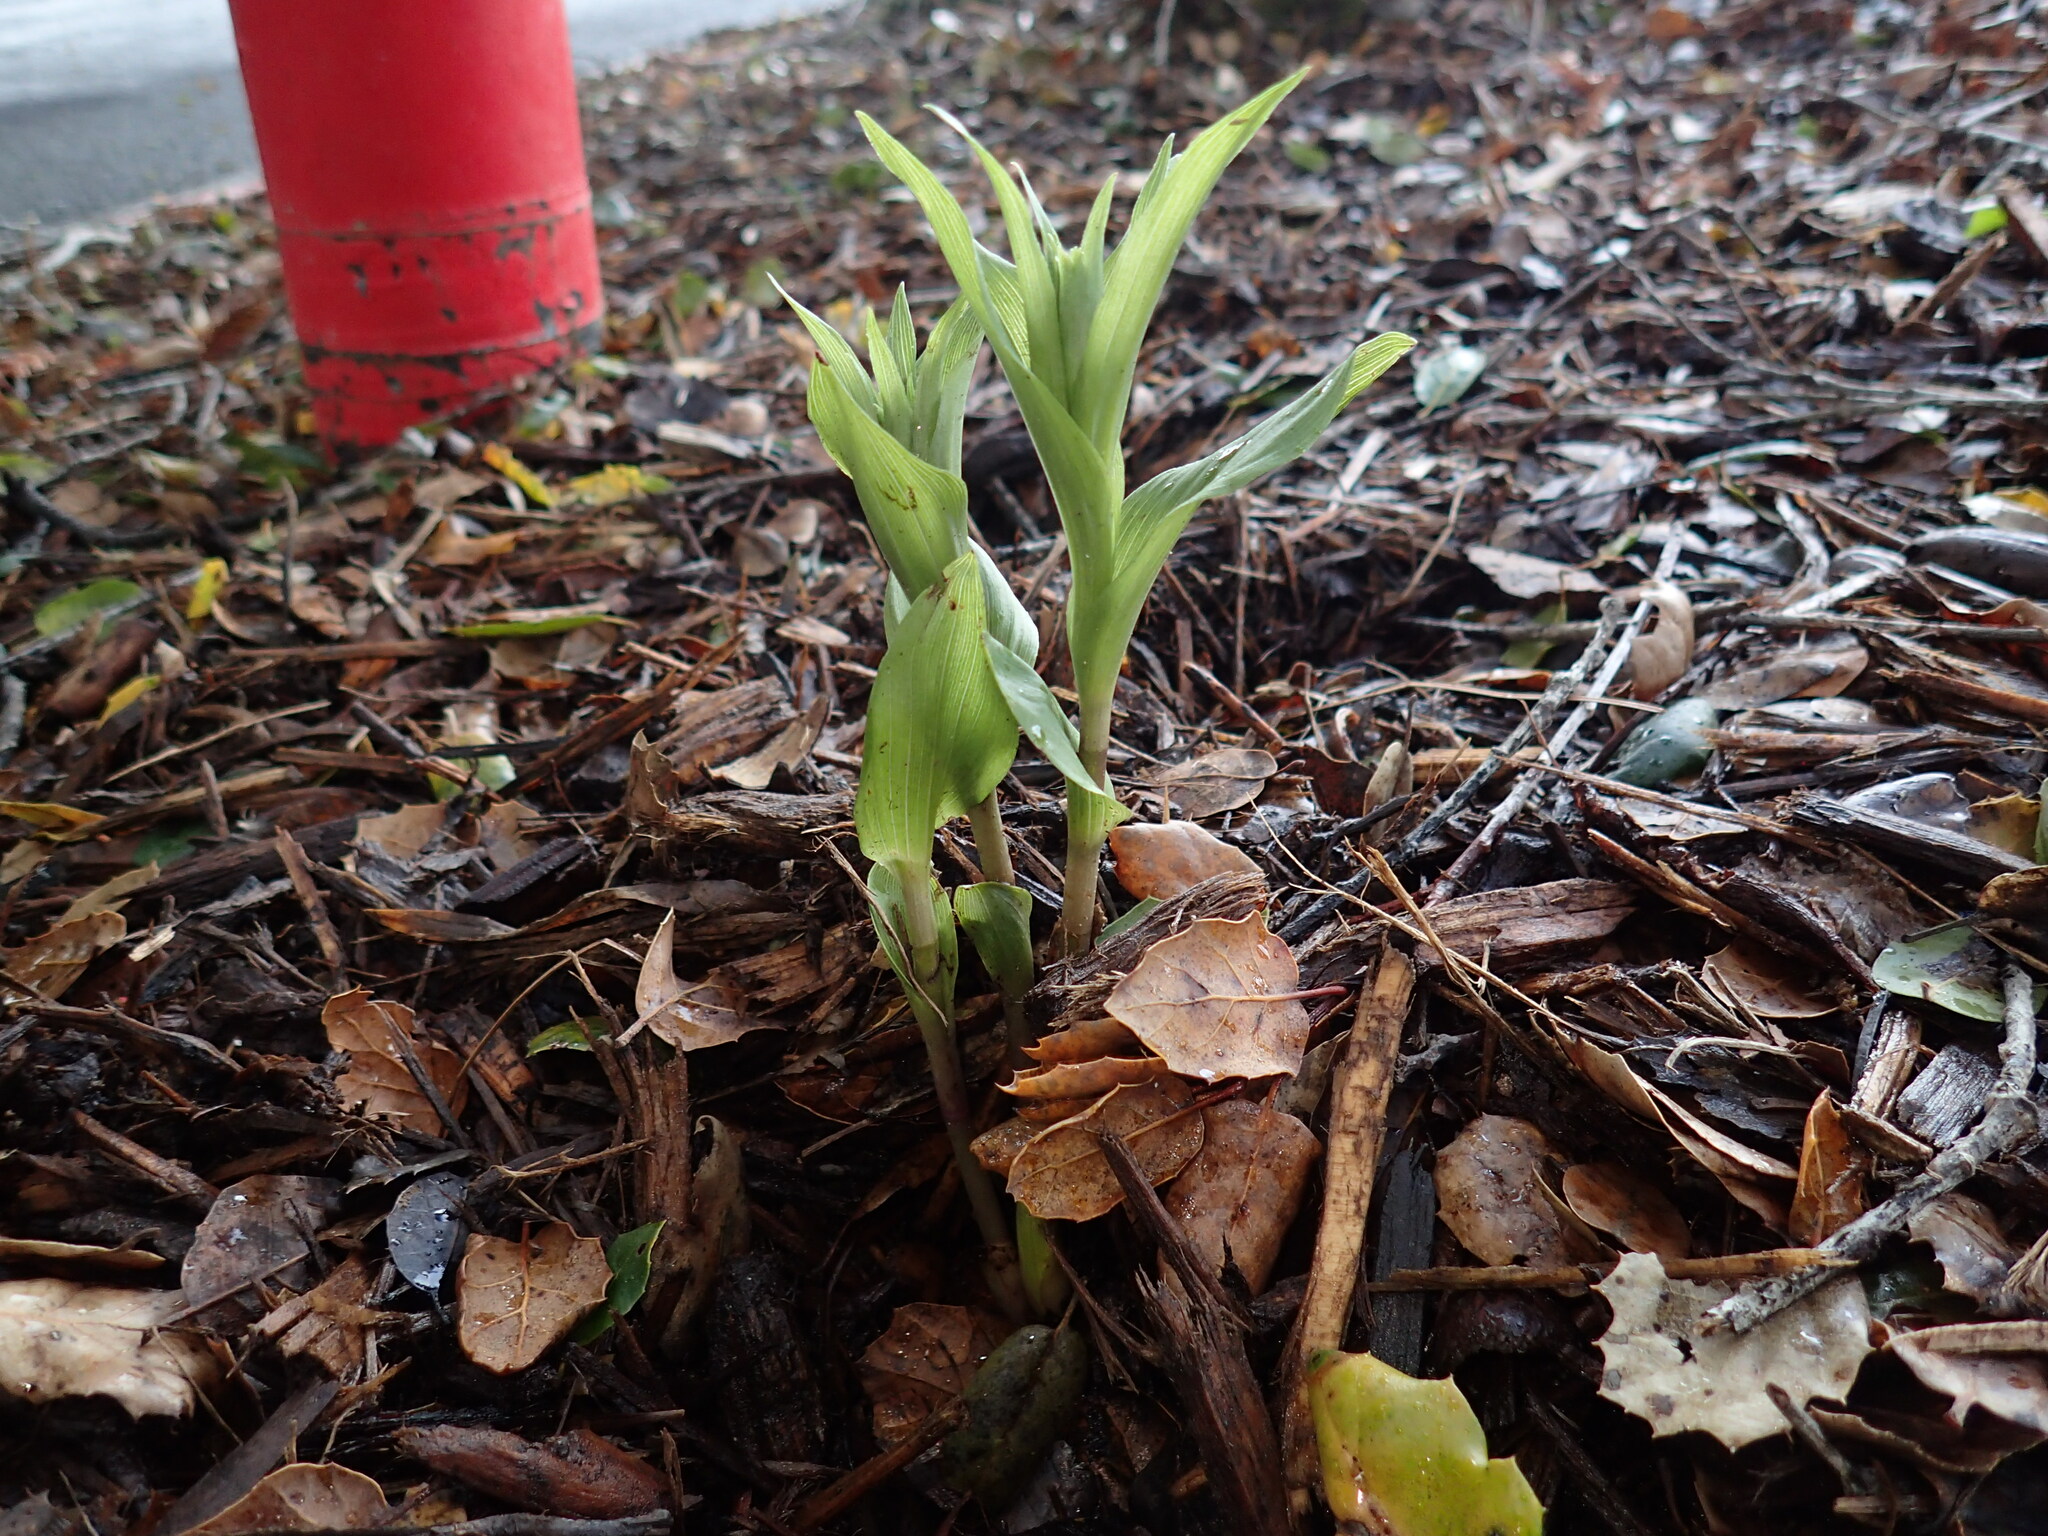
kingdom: Plantae
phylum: Tracheophyta
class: Liliopsida
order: Asparagales
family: Orchidaceae
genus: Epipactis
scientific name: Epipactis helleborine
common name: Broad-leaved helleborine
